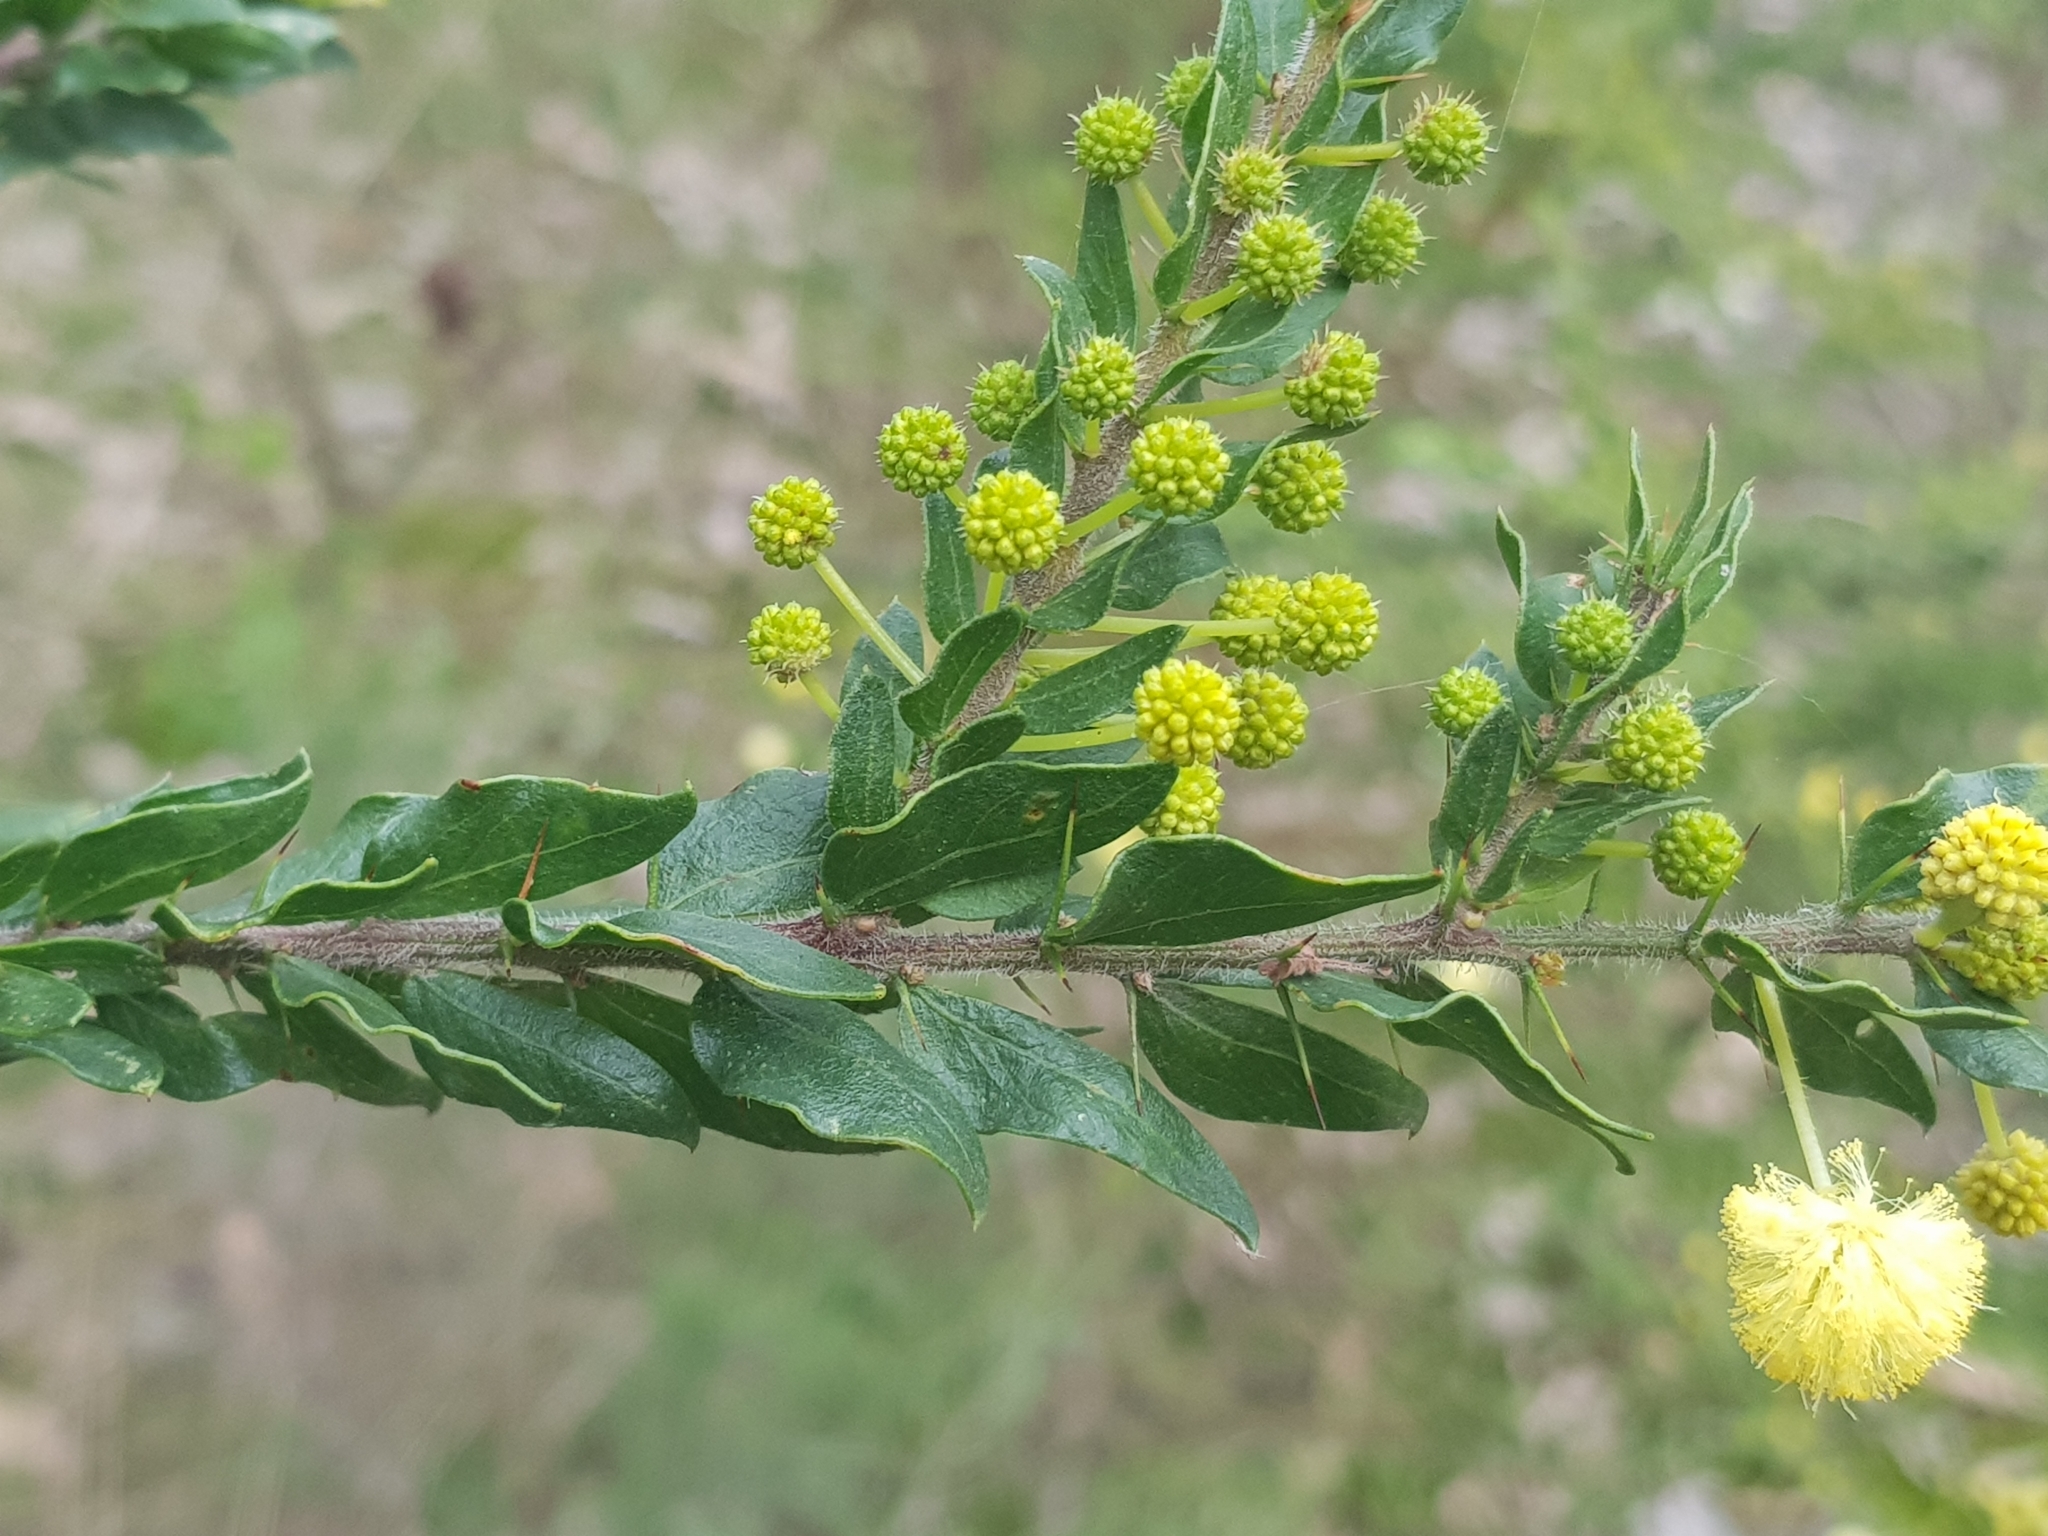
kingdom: Plantae
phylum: Tracheophyta
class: Magnoliopsida
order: Fabales
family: Fabaceae
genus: Acacia
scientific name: Acacia paradoxa
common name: Paradox acacia
